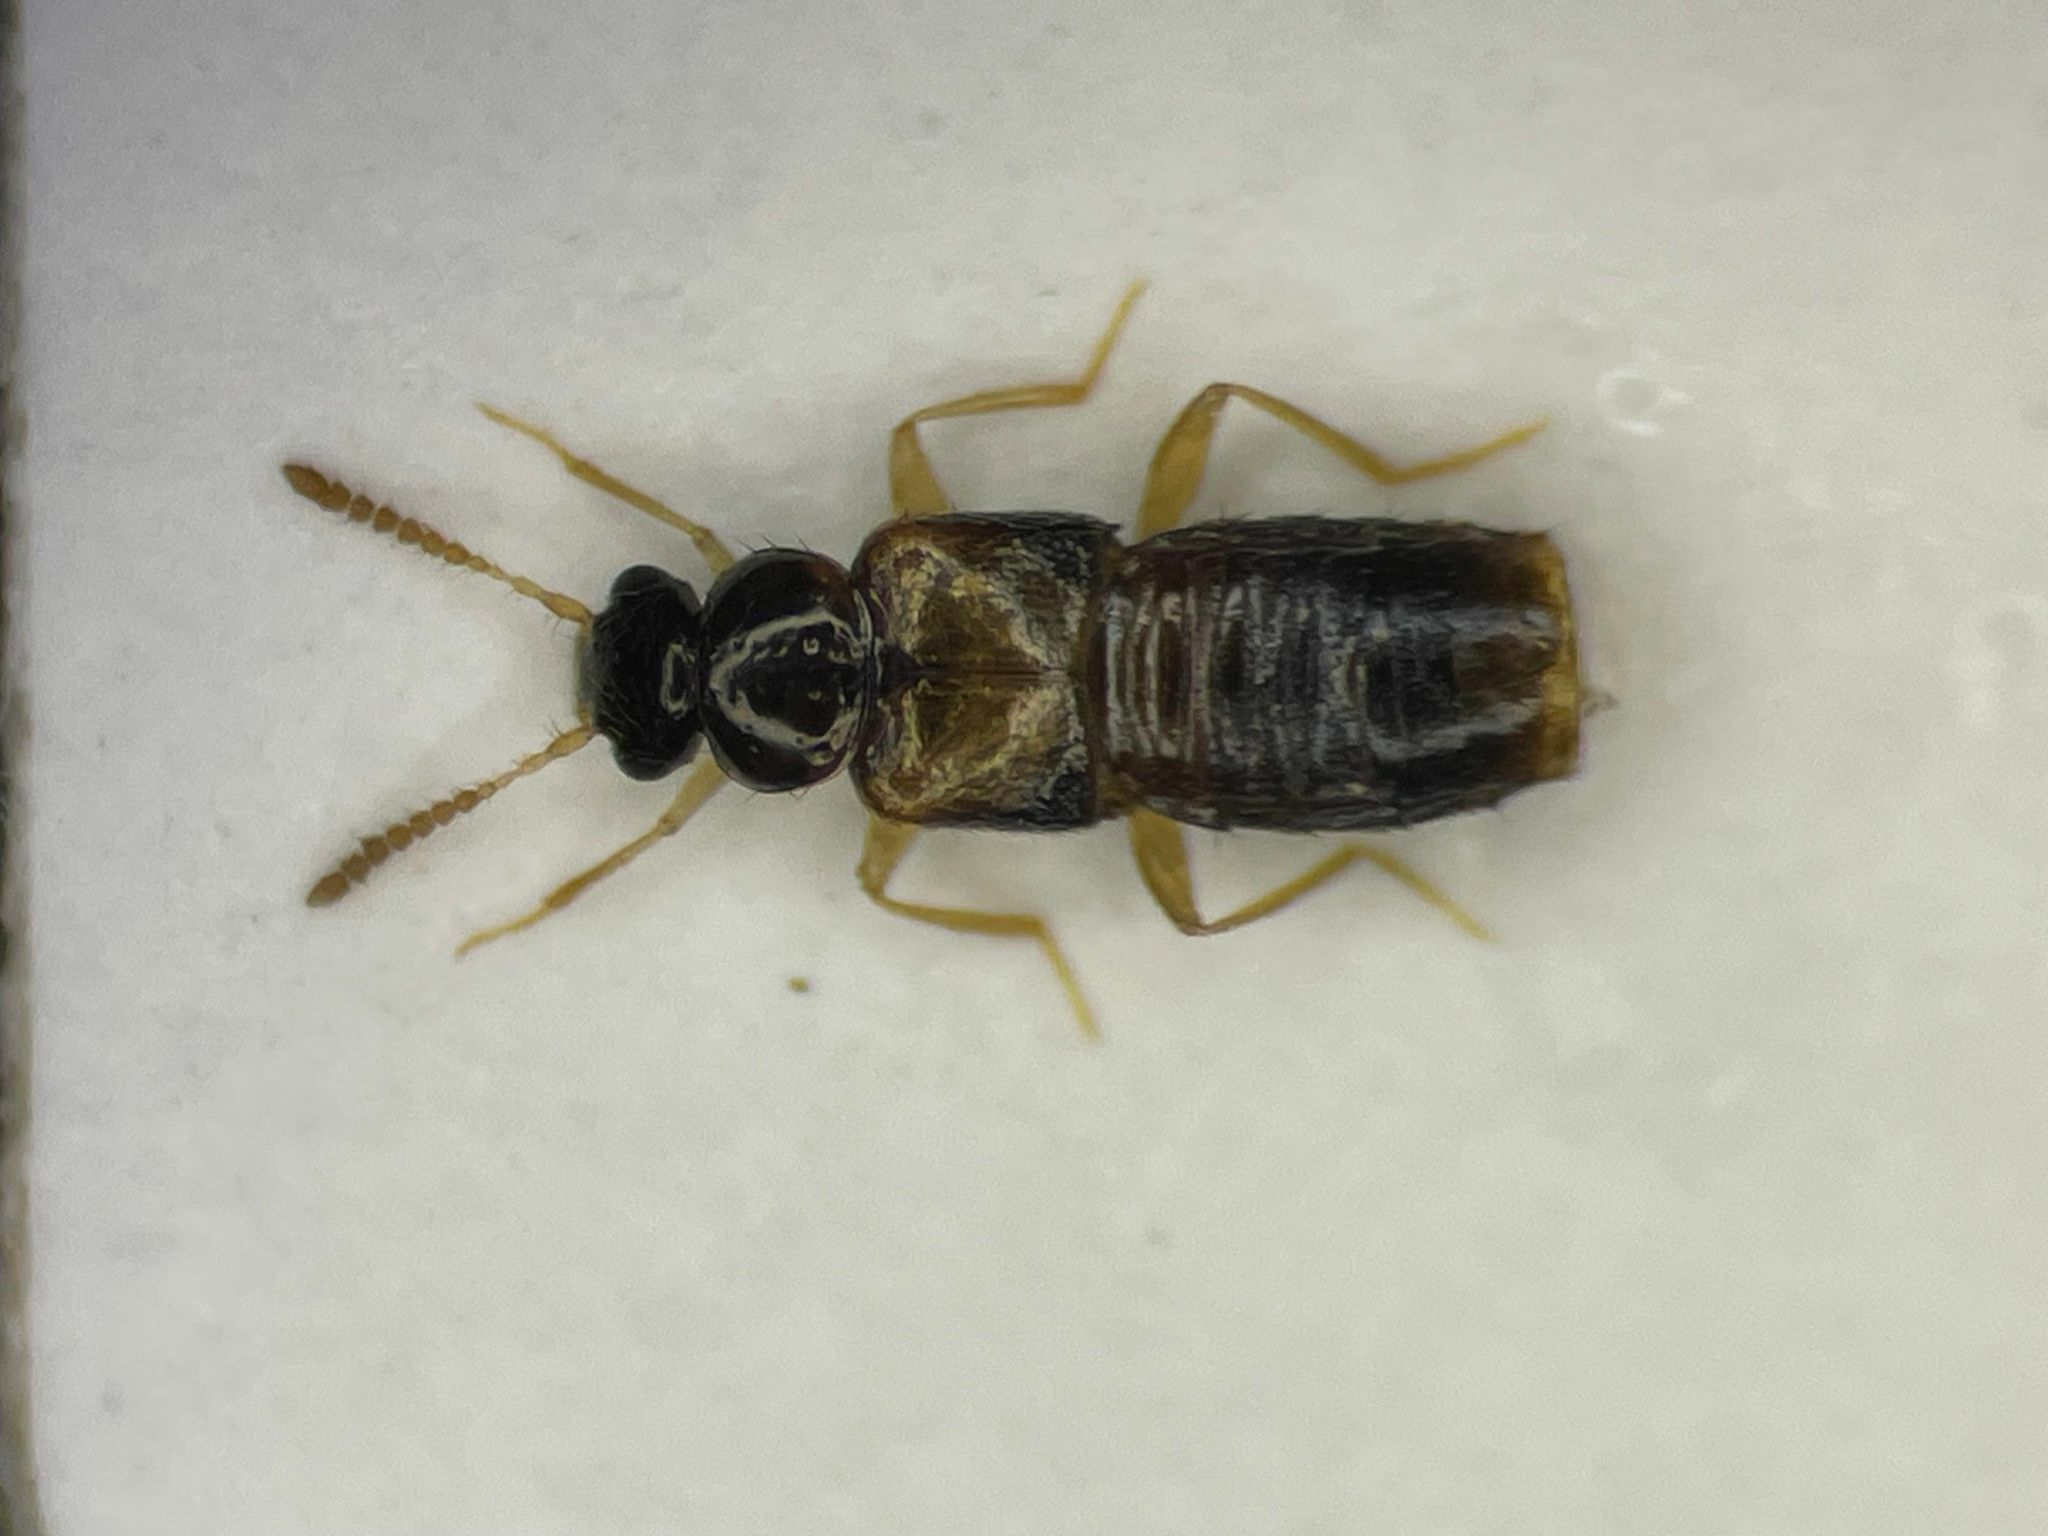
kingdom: Animalia
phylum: Arthropoda
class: Insecta
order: Coleoptera
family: Staphylinidae
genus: Gyrophaena
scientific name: Gyrophaena flavicornis
